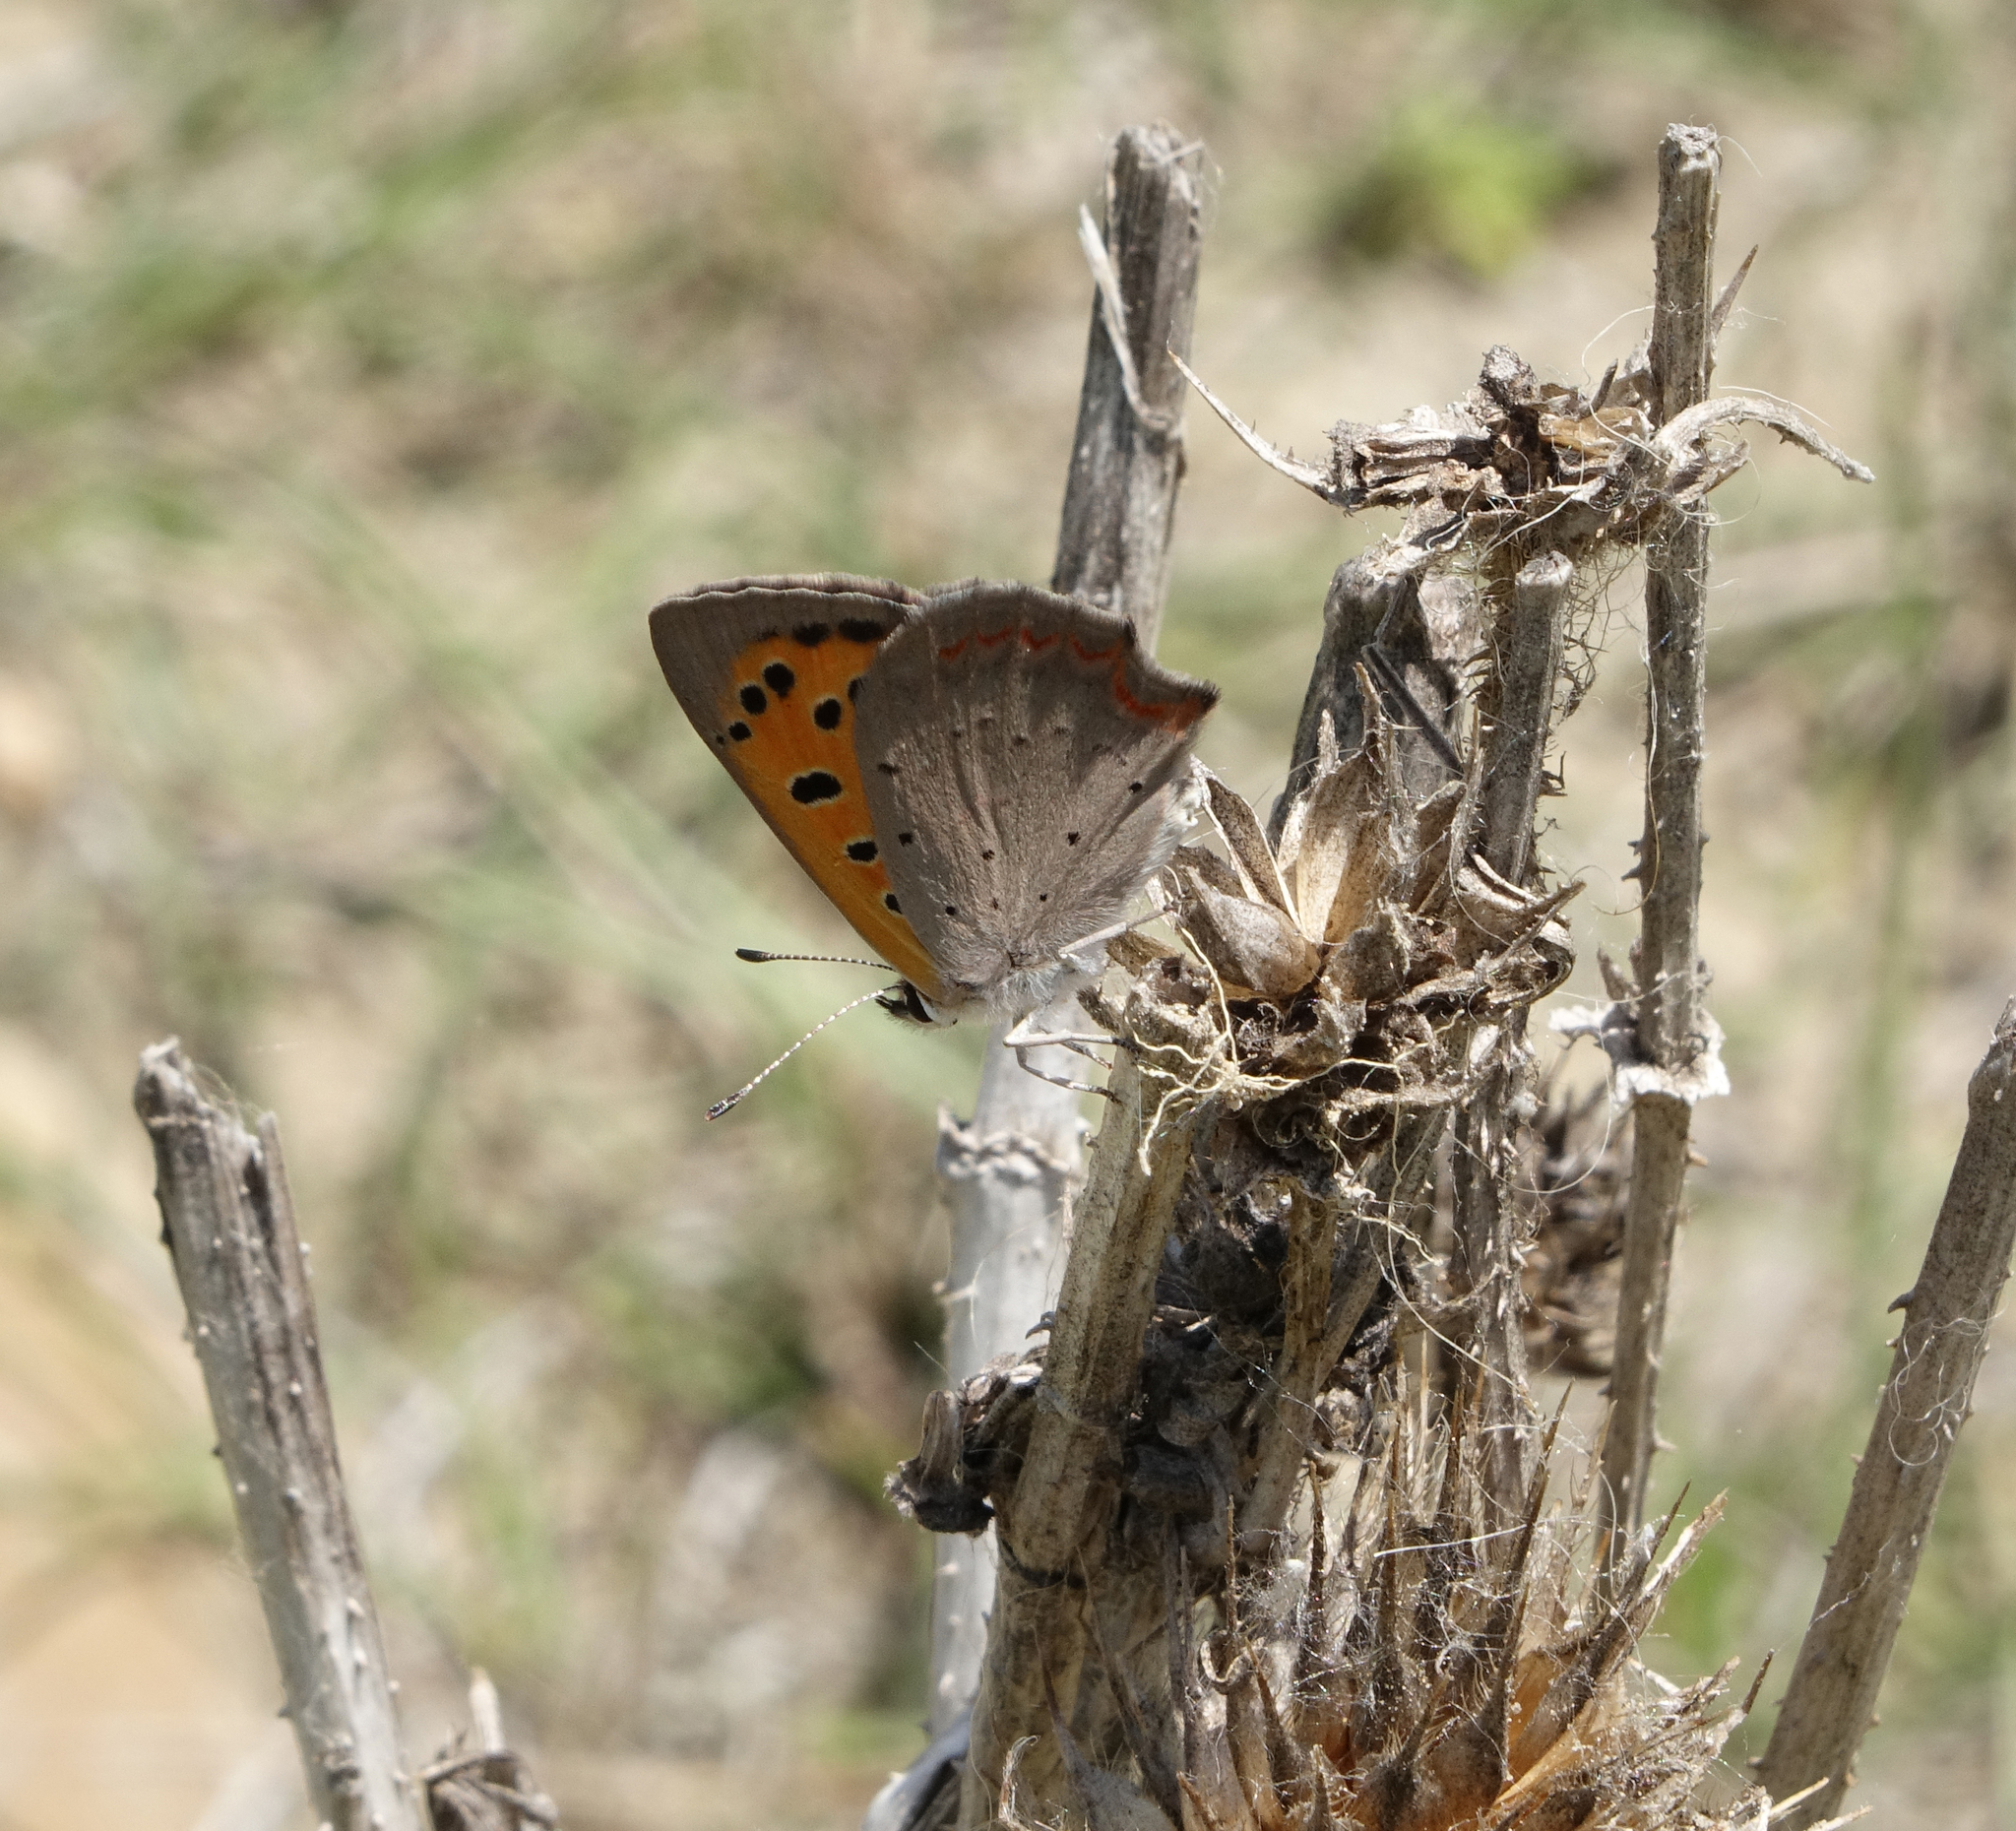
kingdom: Animalia
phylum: Arthropoda
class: Insecta
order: Lepidoptera
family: Lycaenidae
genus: Lycaena
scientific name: Lycaena phlaeas
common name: Small copper
